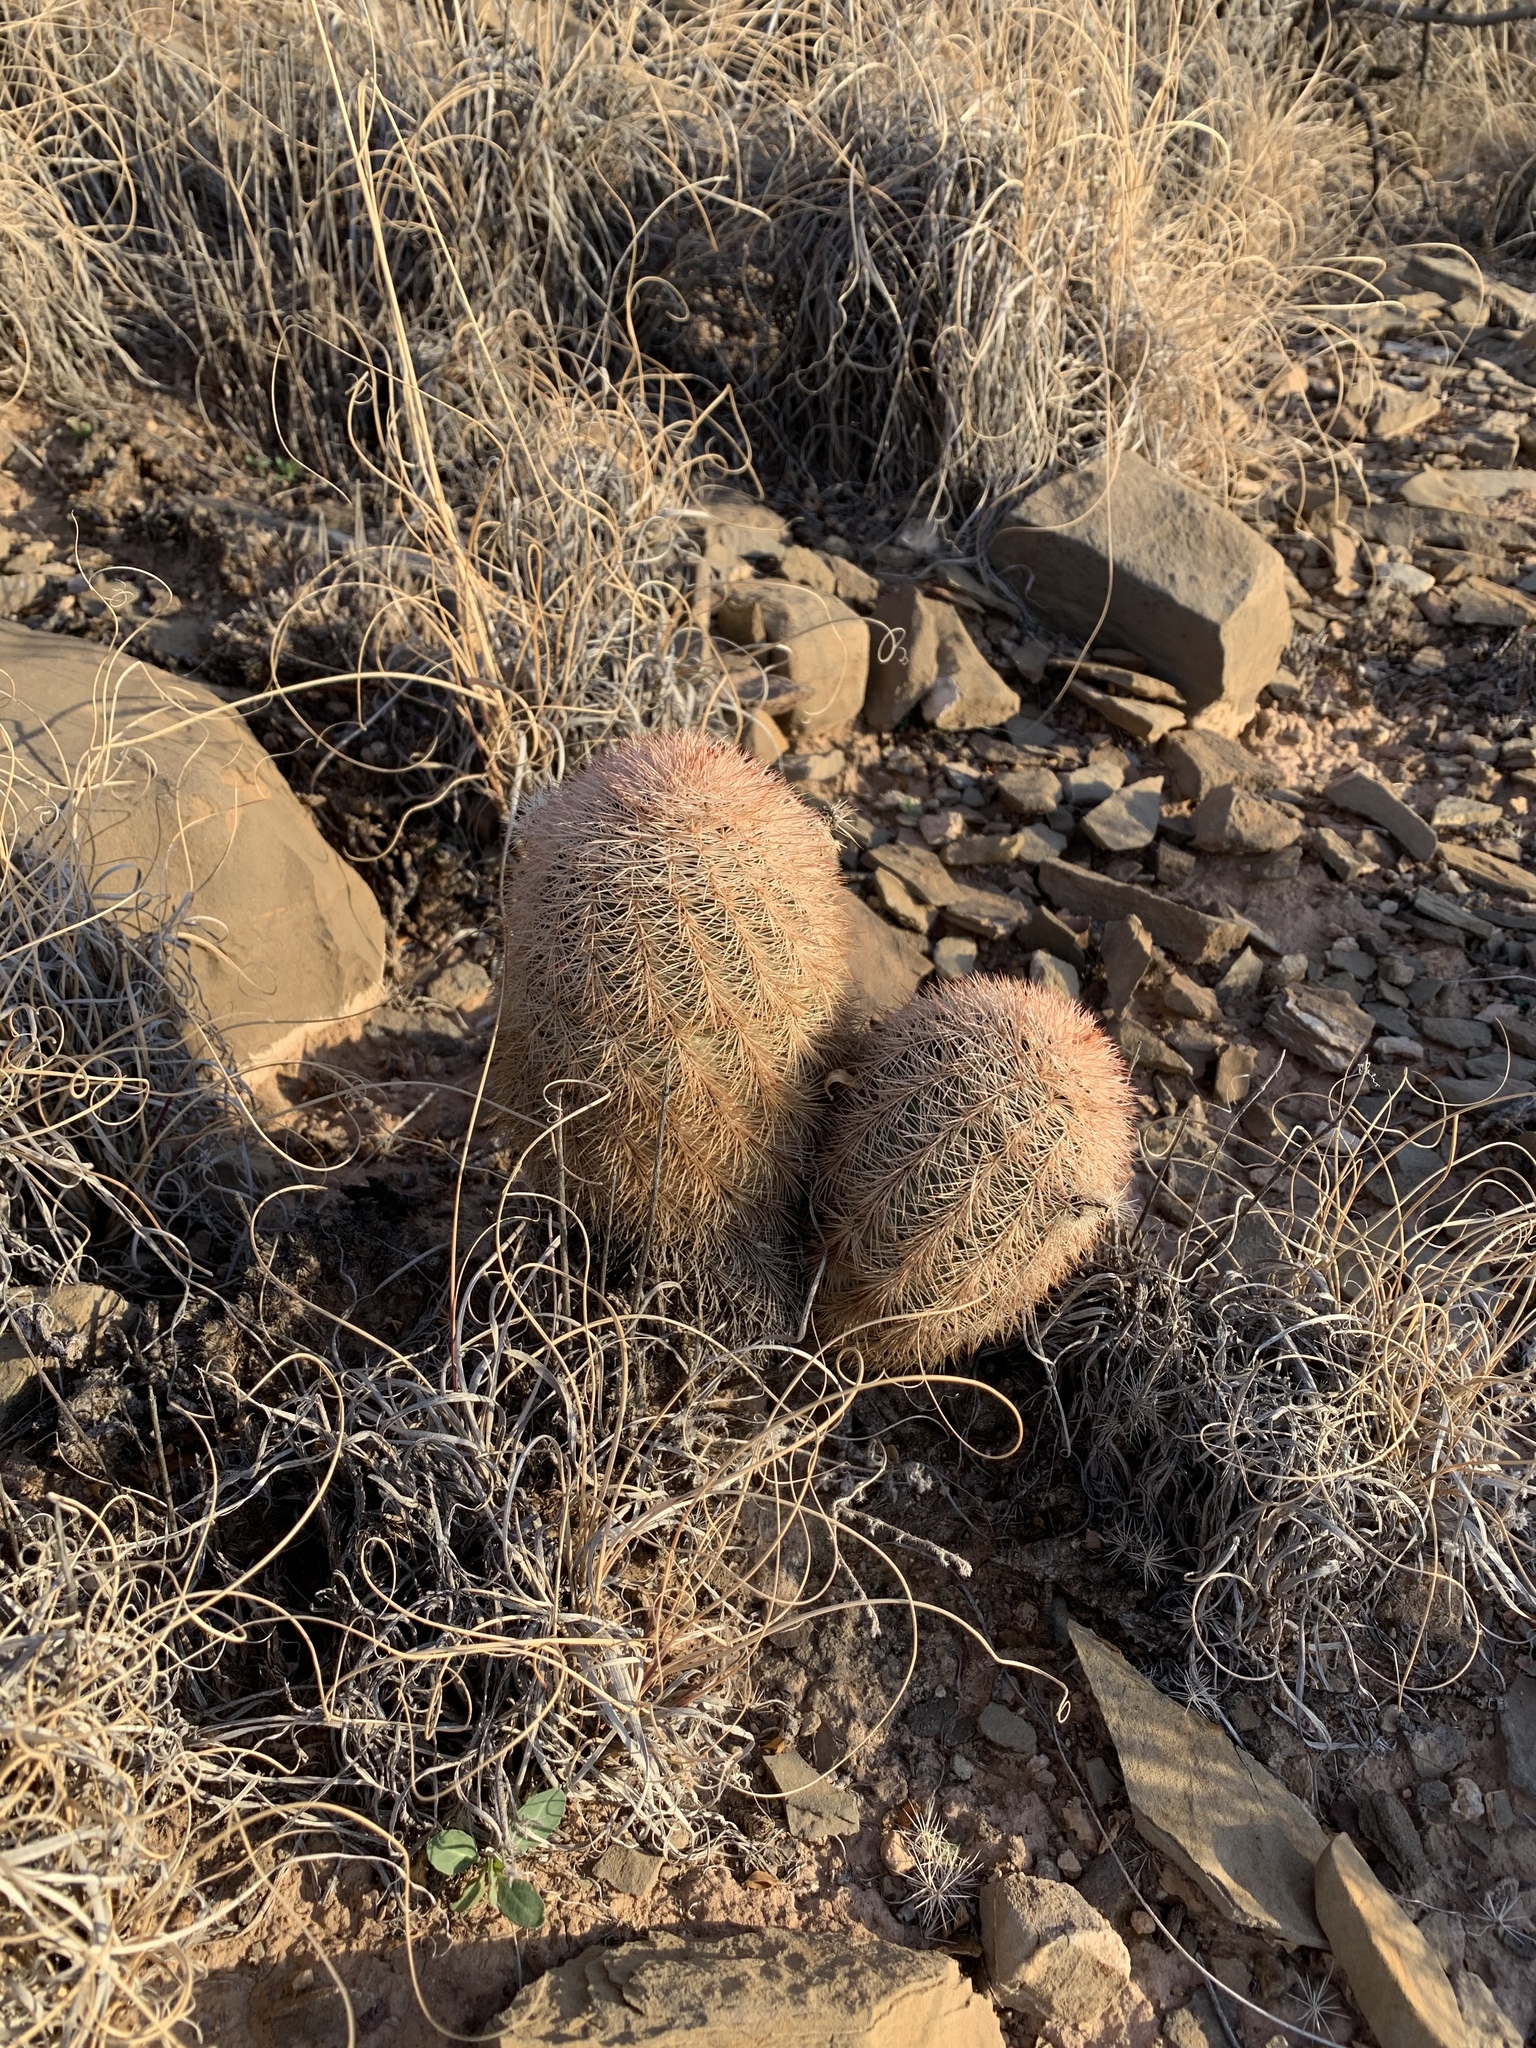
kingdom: Plantae
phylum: Tracheophyta
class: Magnoliopsida
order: Caryophyllales
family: Cactaceae
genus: Echinocereus
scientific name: Echinocereus dasyacanthus
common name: Spiny hedgehog cactus
